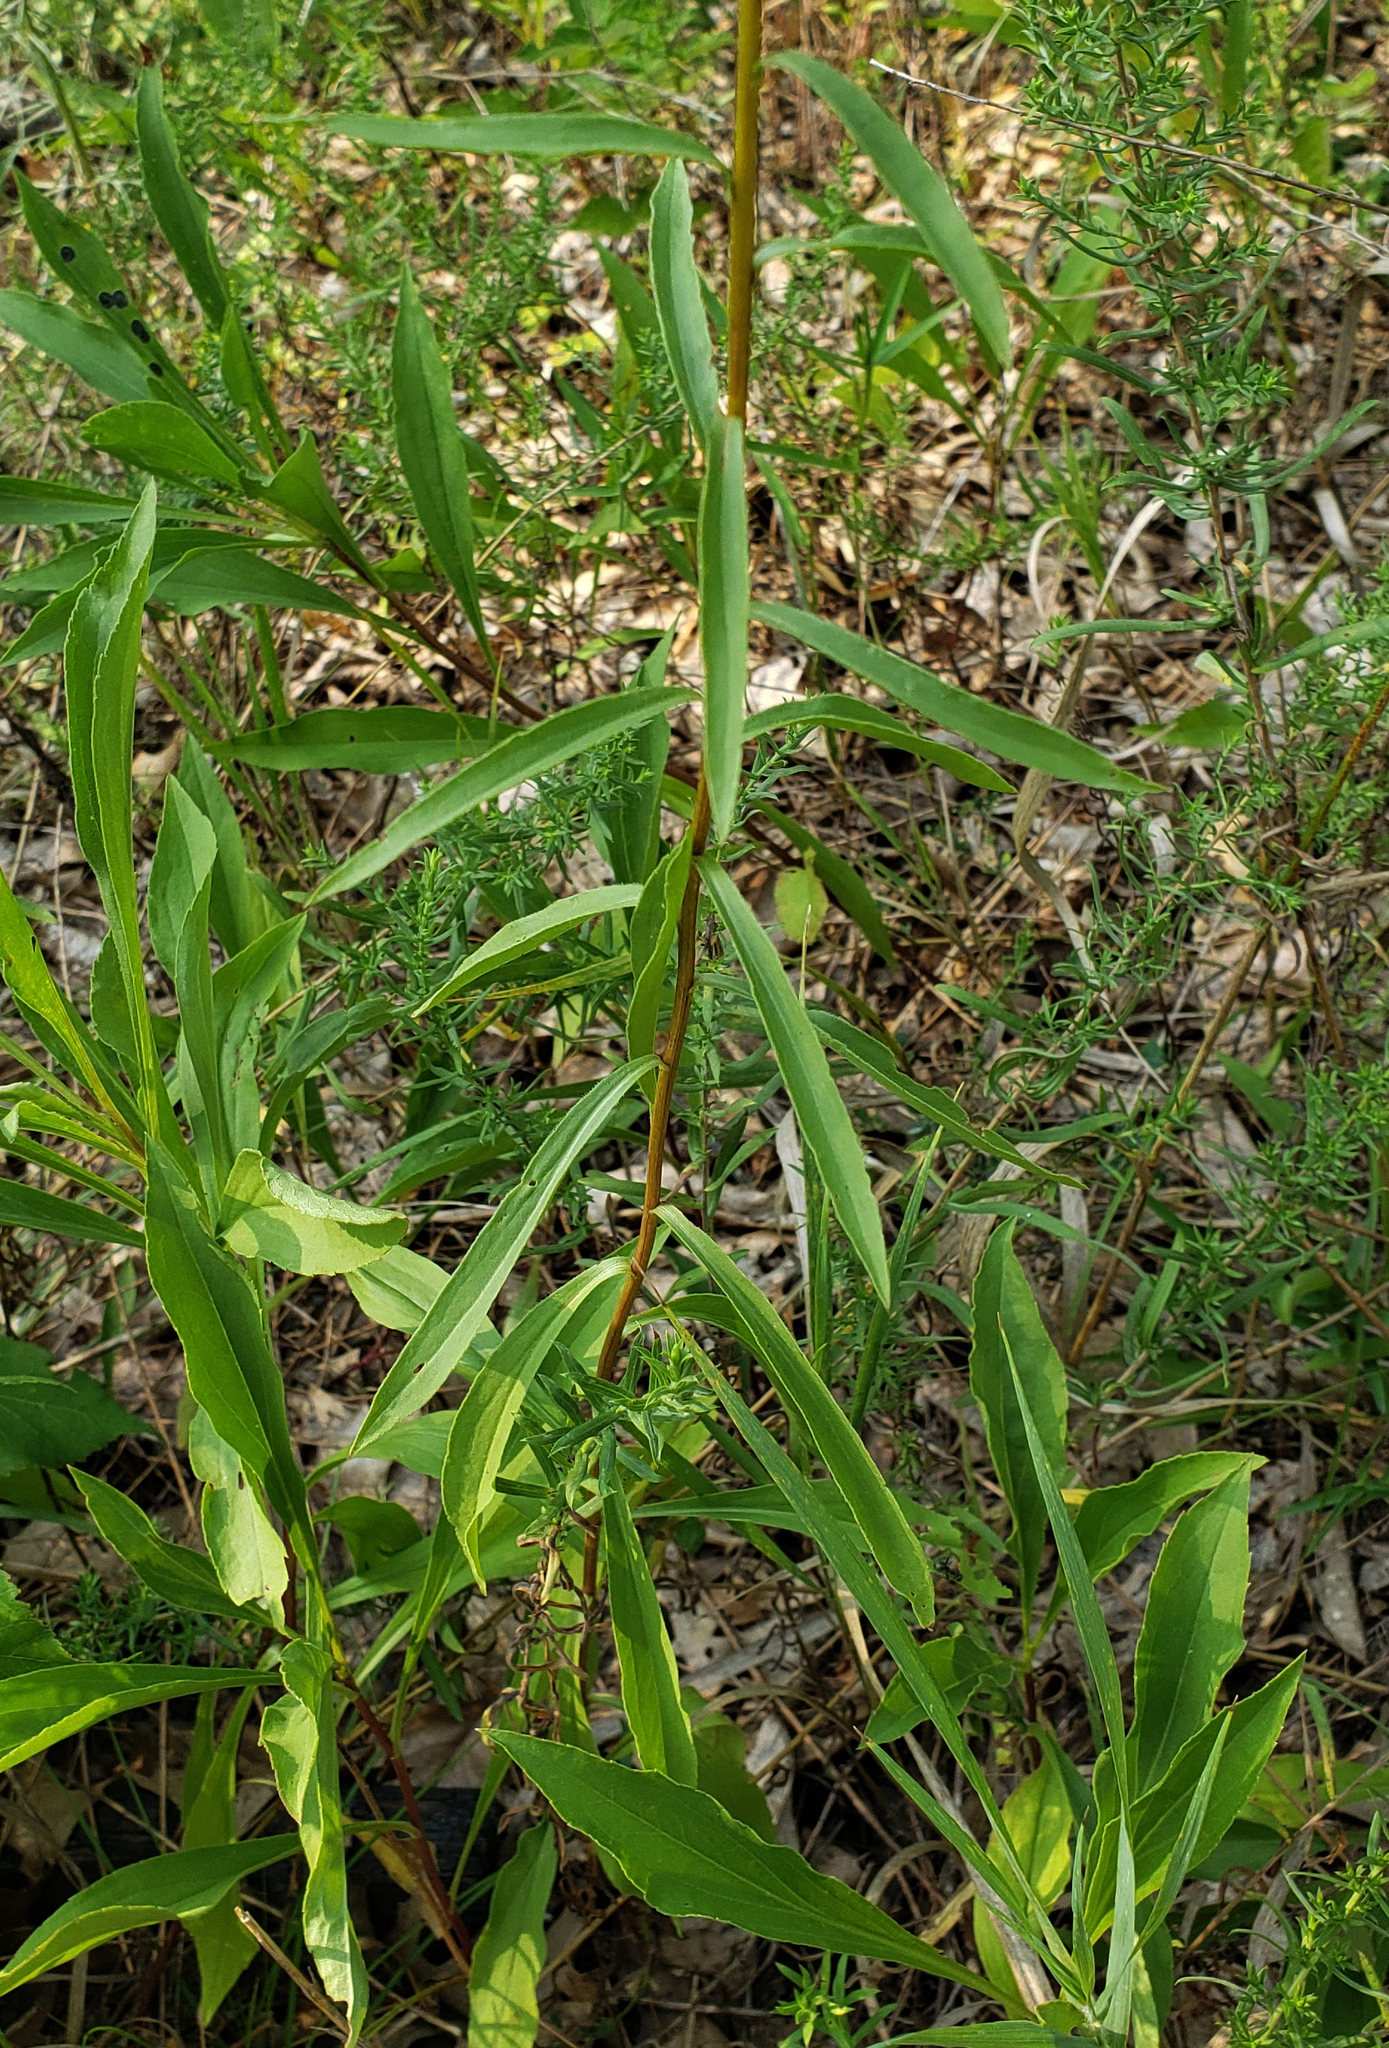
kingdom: Plantae
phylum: Tracheophyta
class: Magnoliopsida
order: Asterales
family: Asteraceae
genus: Solidago
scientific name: Solidago juncea
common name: Early goldenrod
